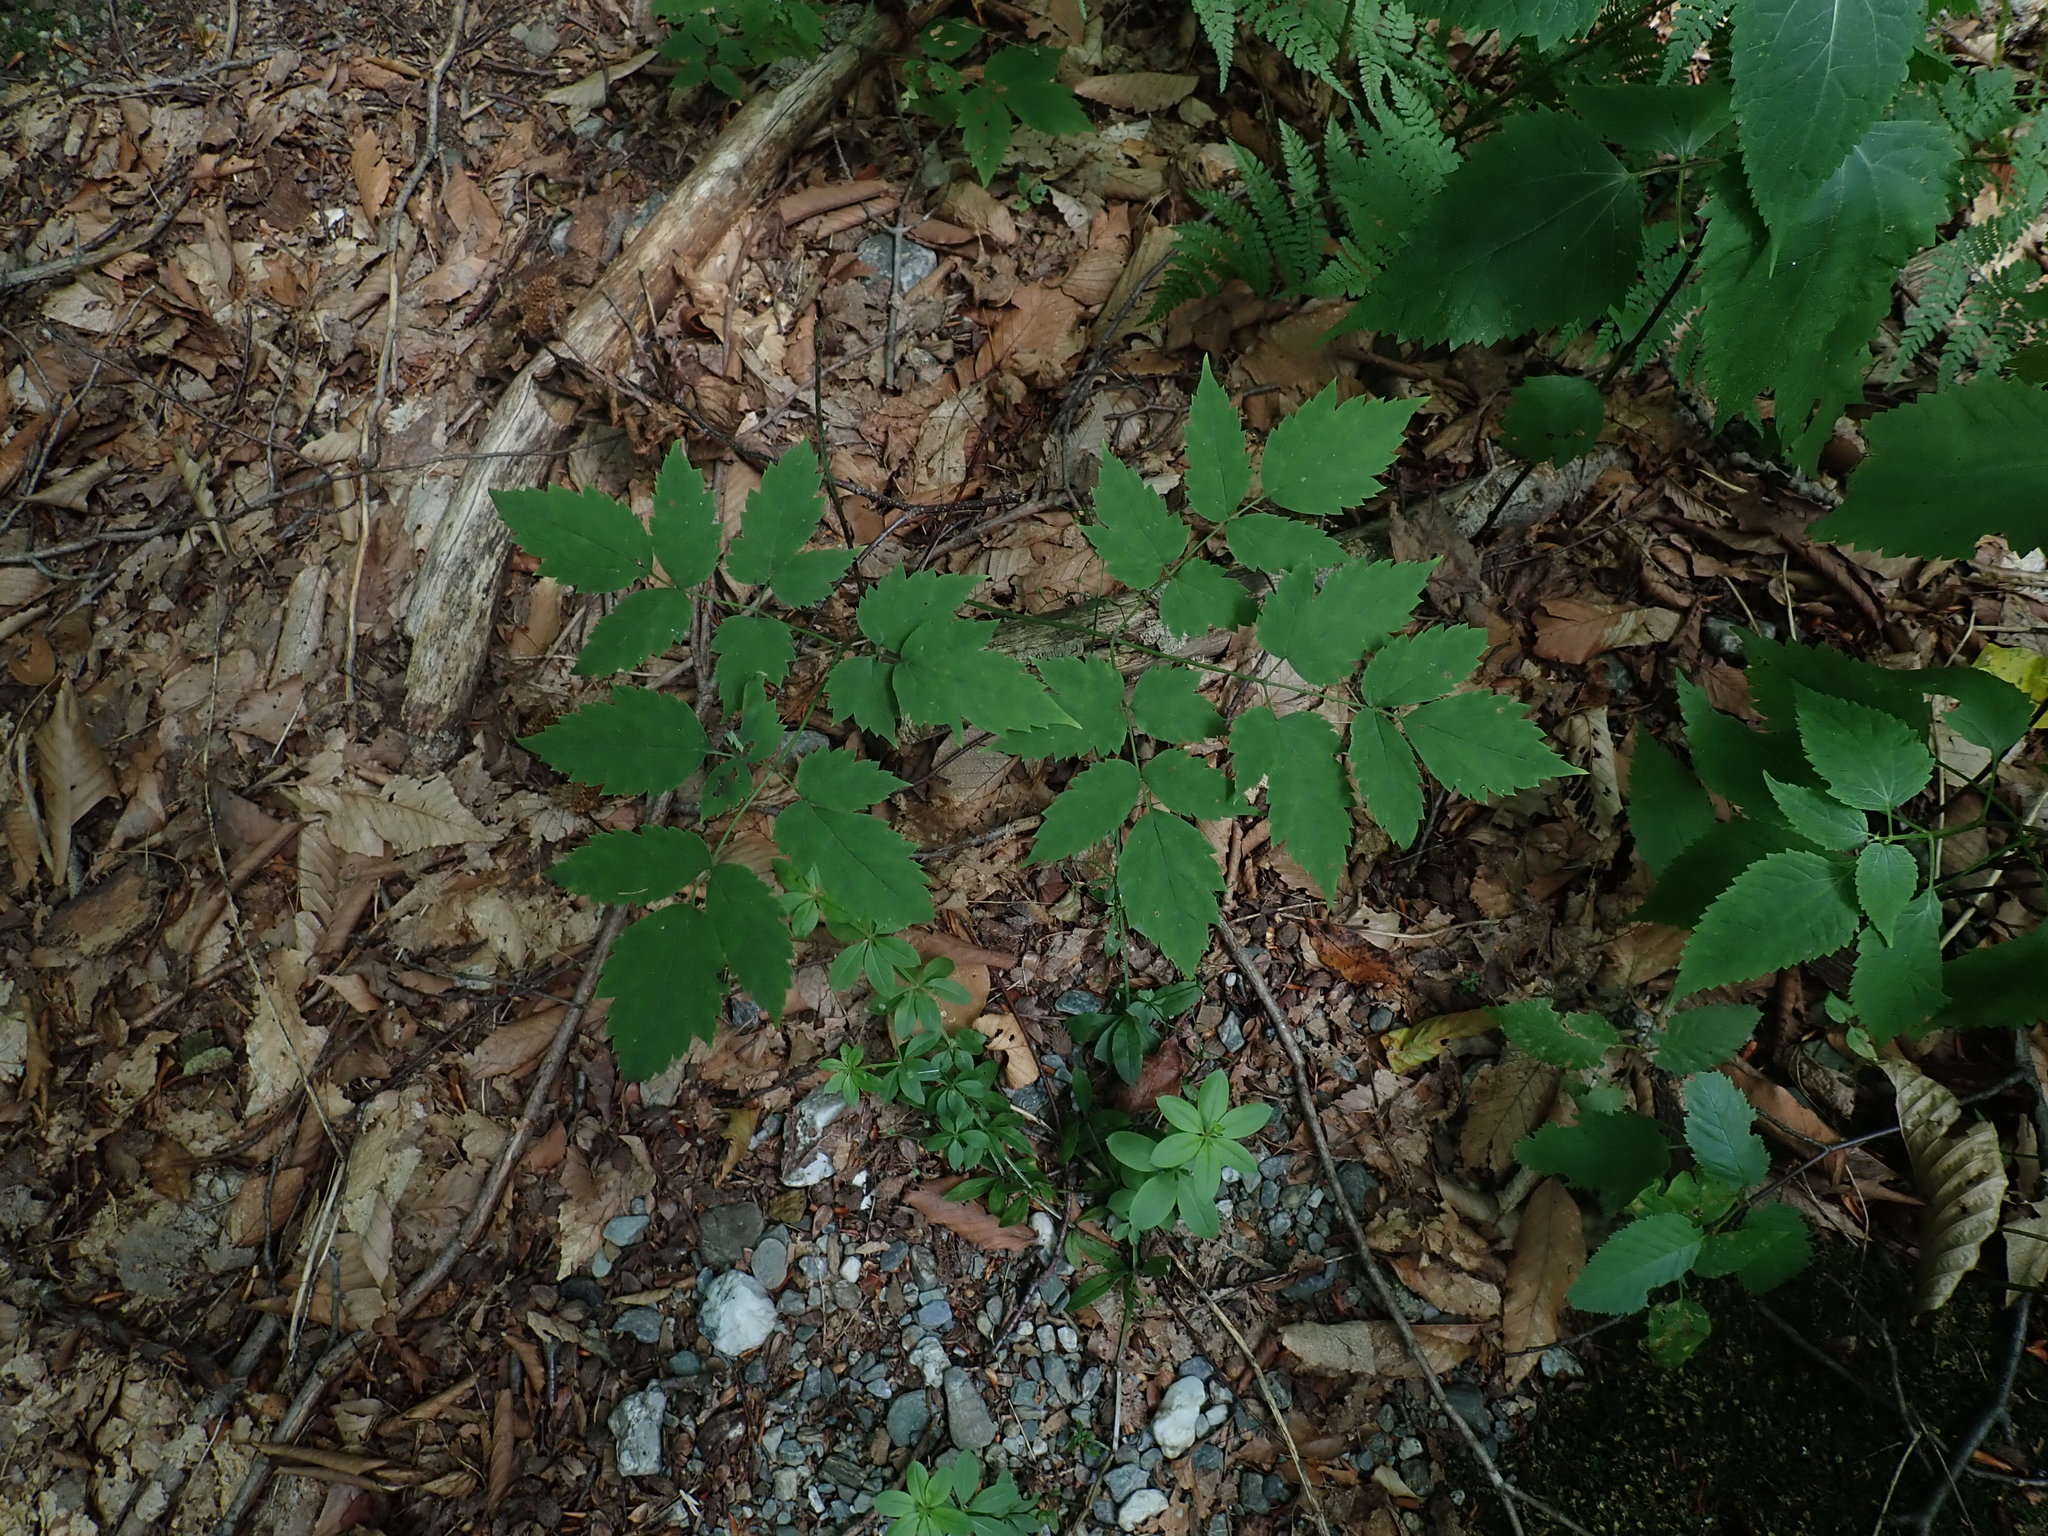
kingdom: Plantae
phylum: Tracheophyta
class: Magnoliopsida
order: Ranunculales
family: Ranunculaceae
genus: Actaea
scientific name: Actaea
